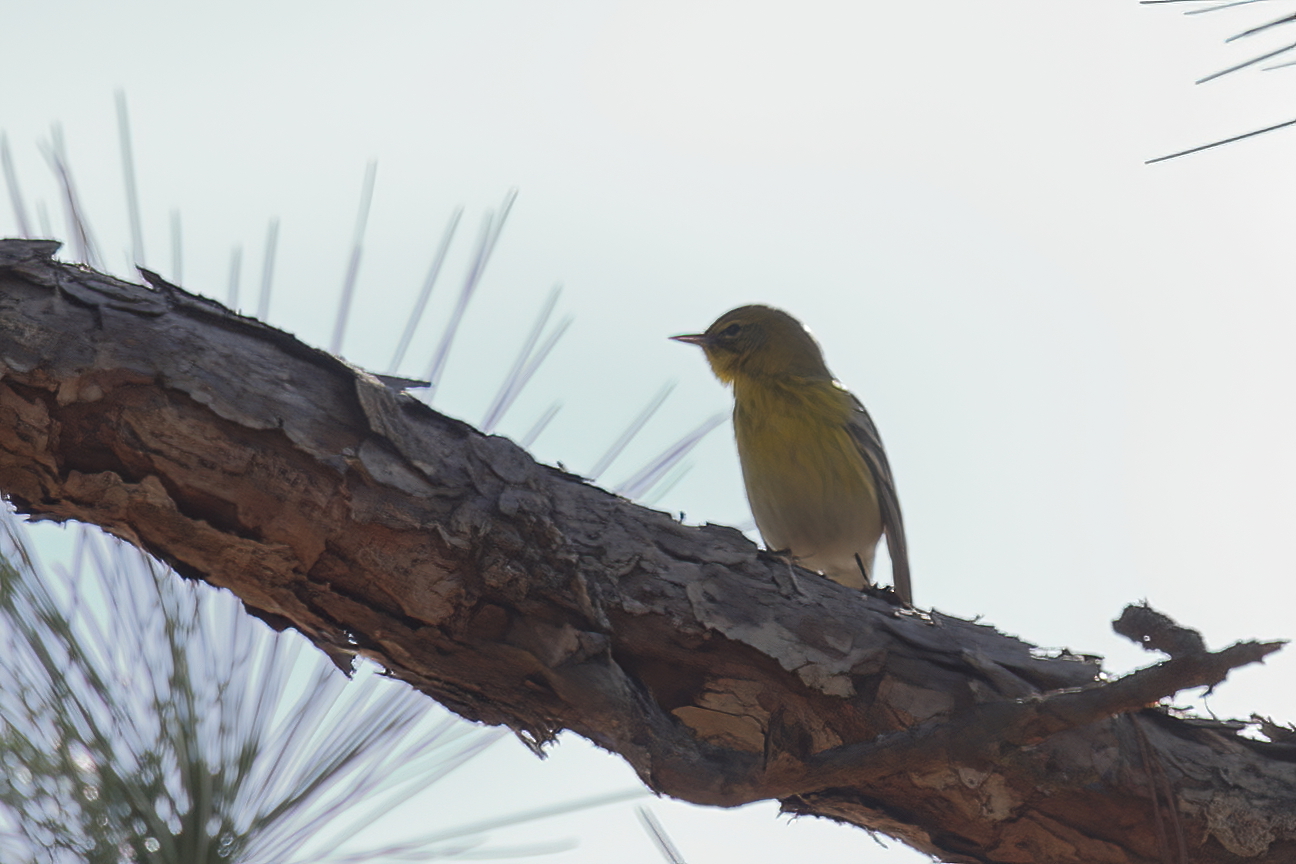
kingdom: Animalia
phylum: Chordata
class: Aves
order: Passeriformes
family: Parulidae
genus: Setophaga
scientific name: Setophaga pinus
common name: Pine warbler
